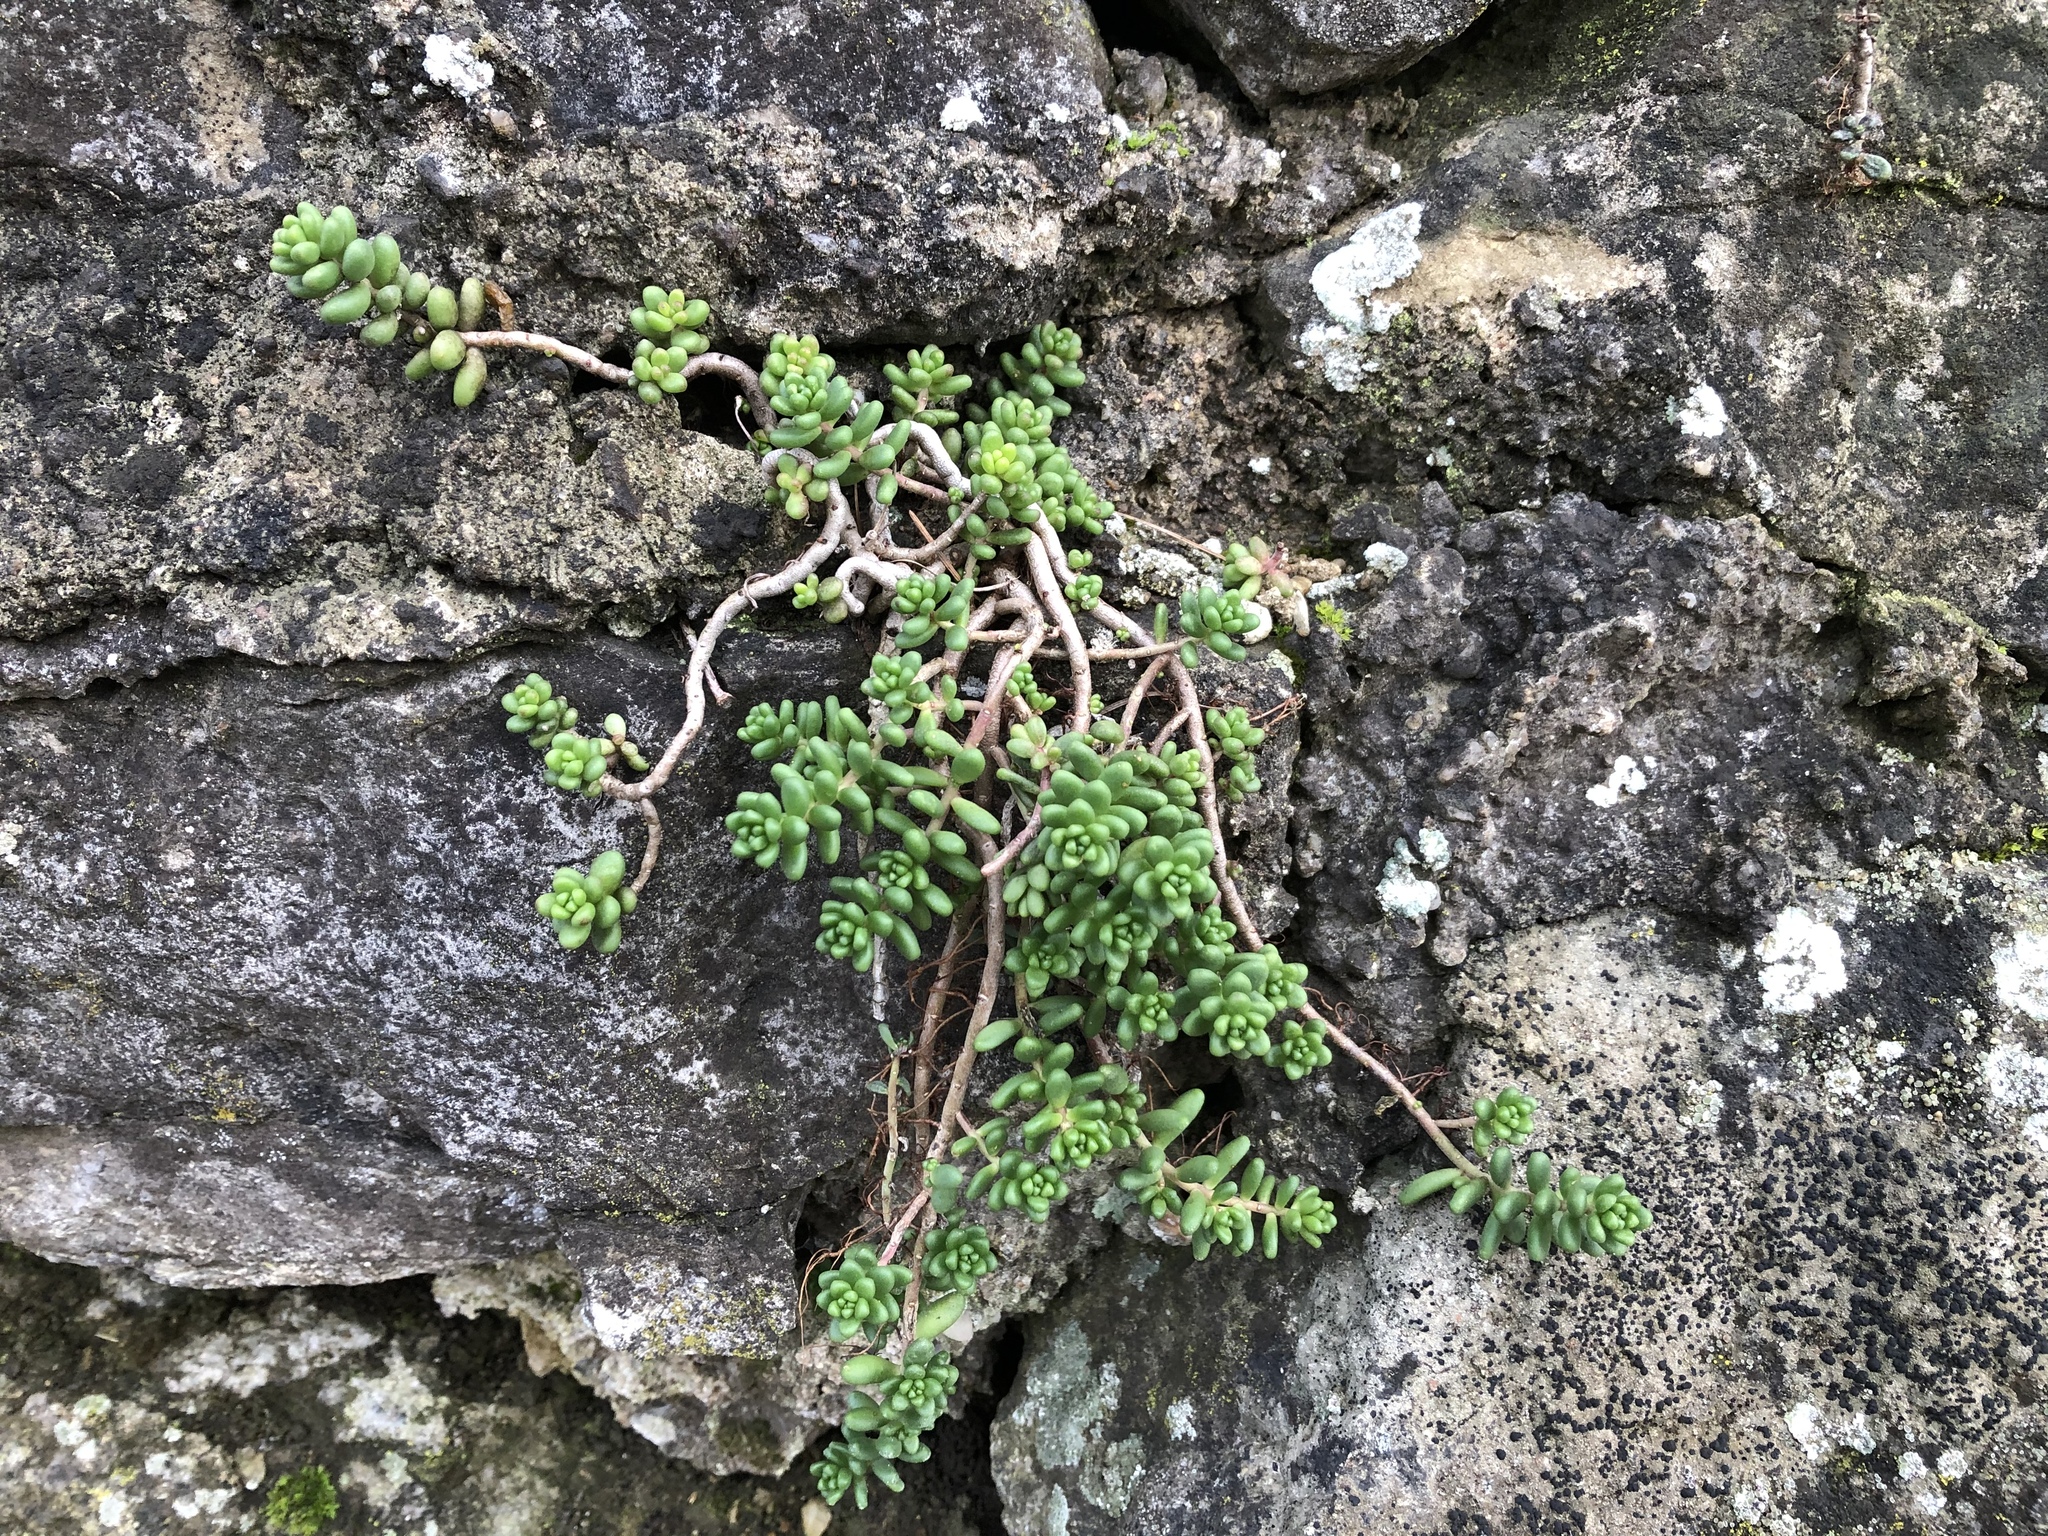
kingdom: Plantae
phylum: Tracheophyta
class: Magnoliopsida
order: Saxifragales
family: Crassulaceae
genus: Sedum
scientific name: Sedum album
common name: White stonecrop
